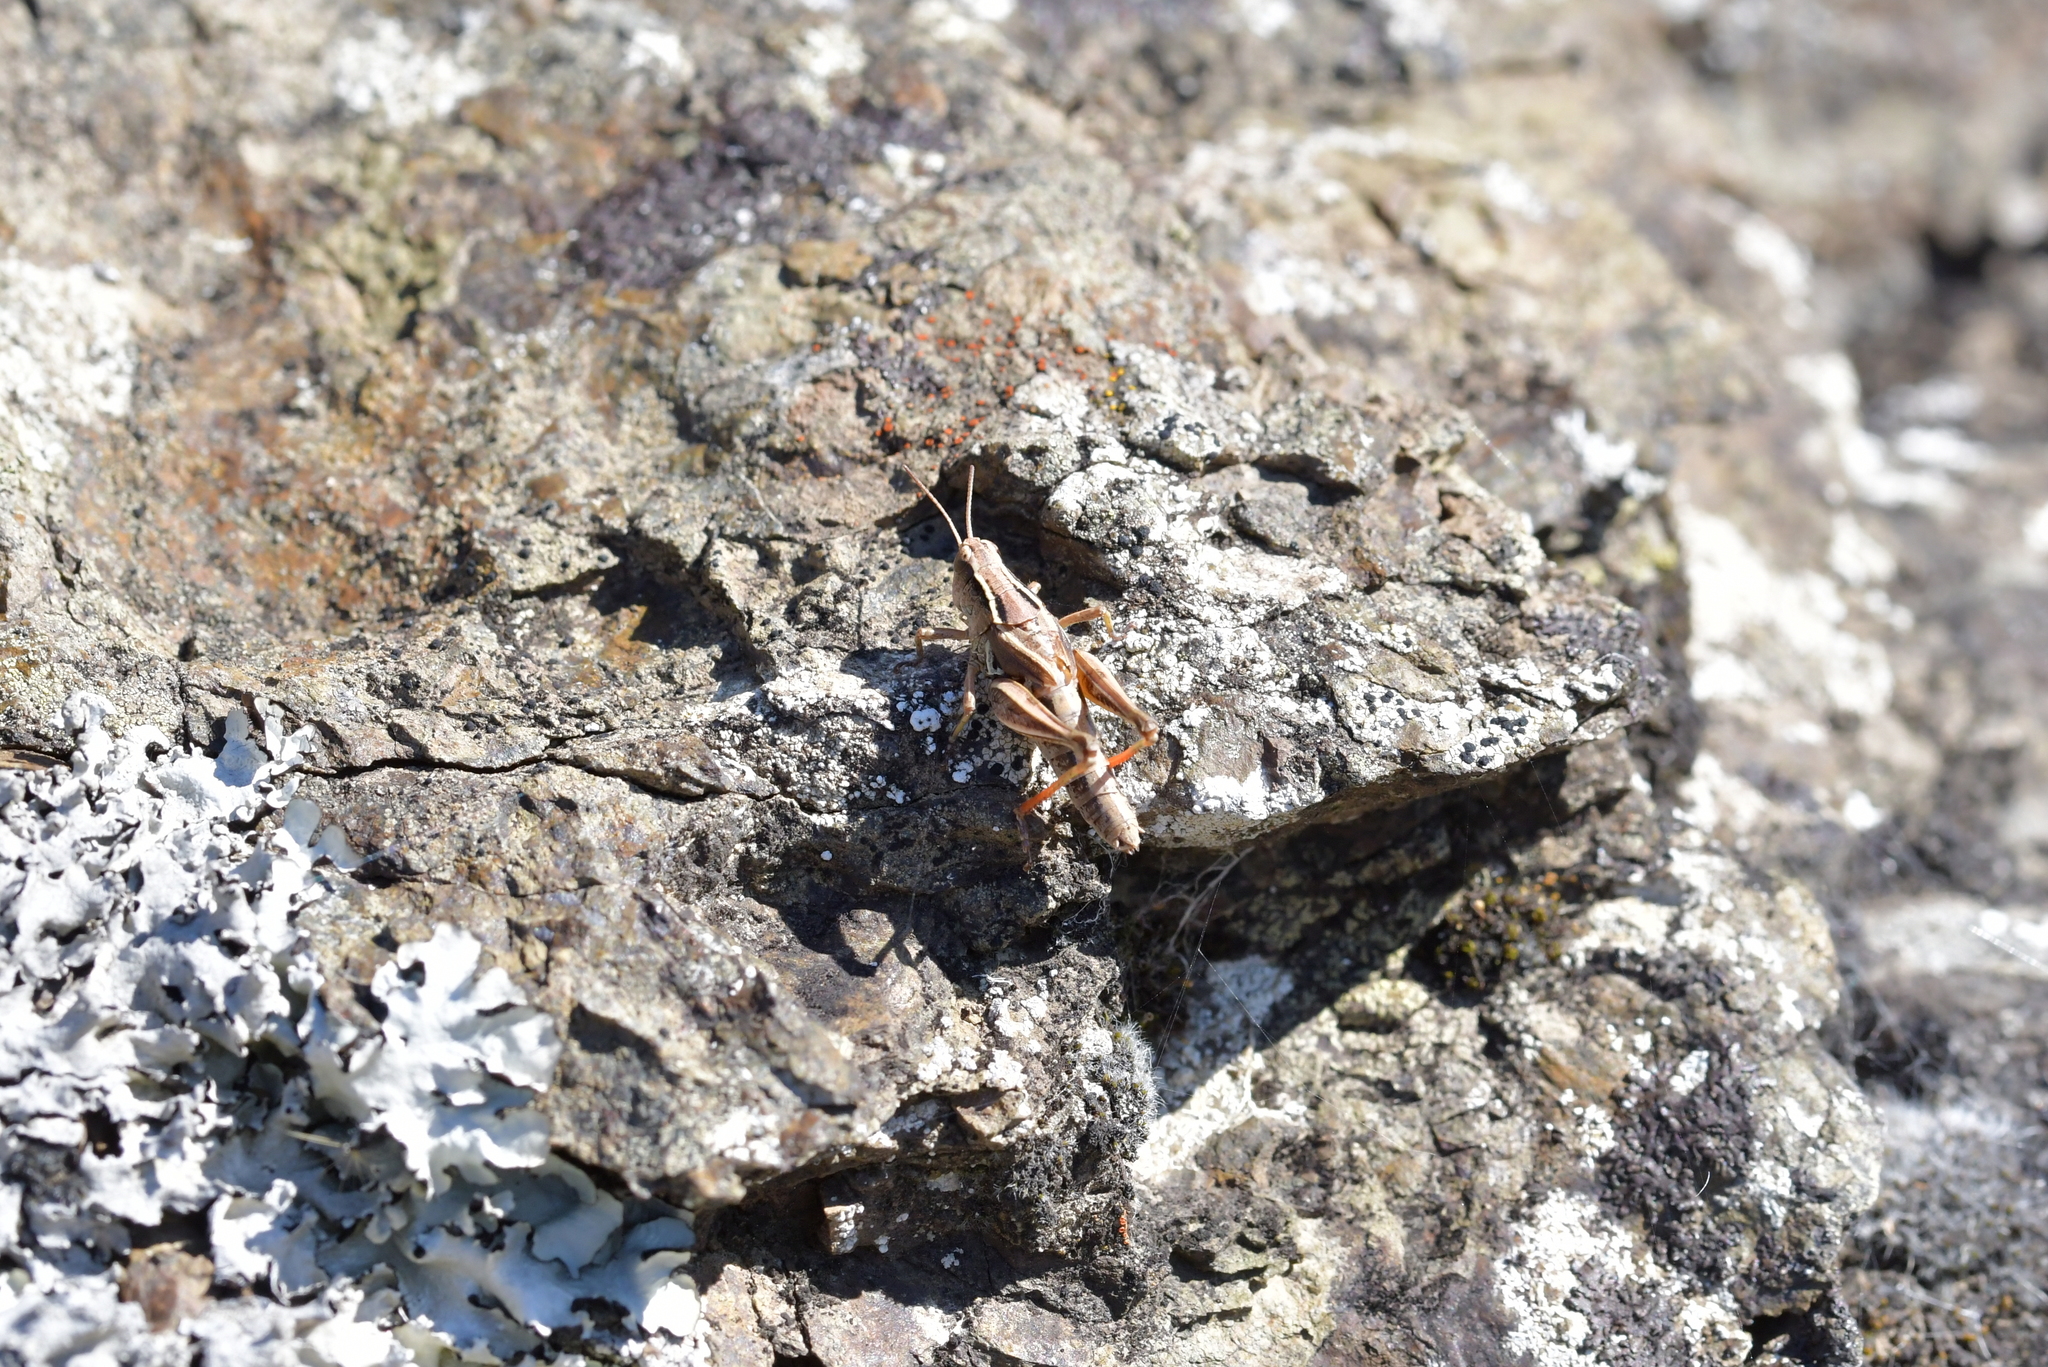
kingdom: Animalia
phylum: Arthropoda
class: Insecta
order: Orthoptera
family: Acrididae
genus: Phaulacridium
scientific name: Phaulacridium marginale
